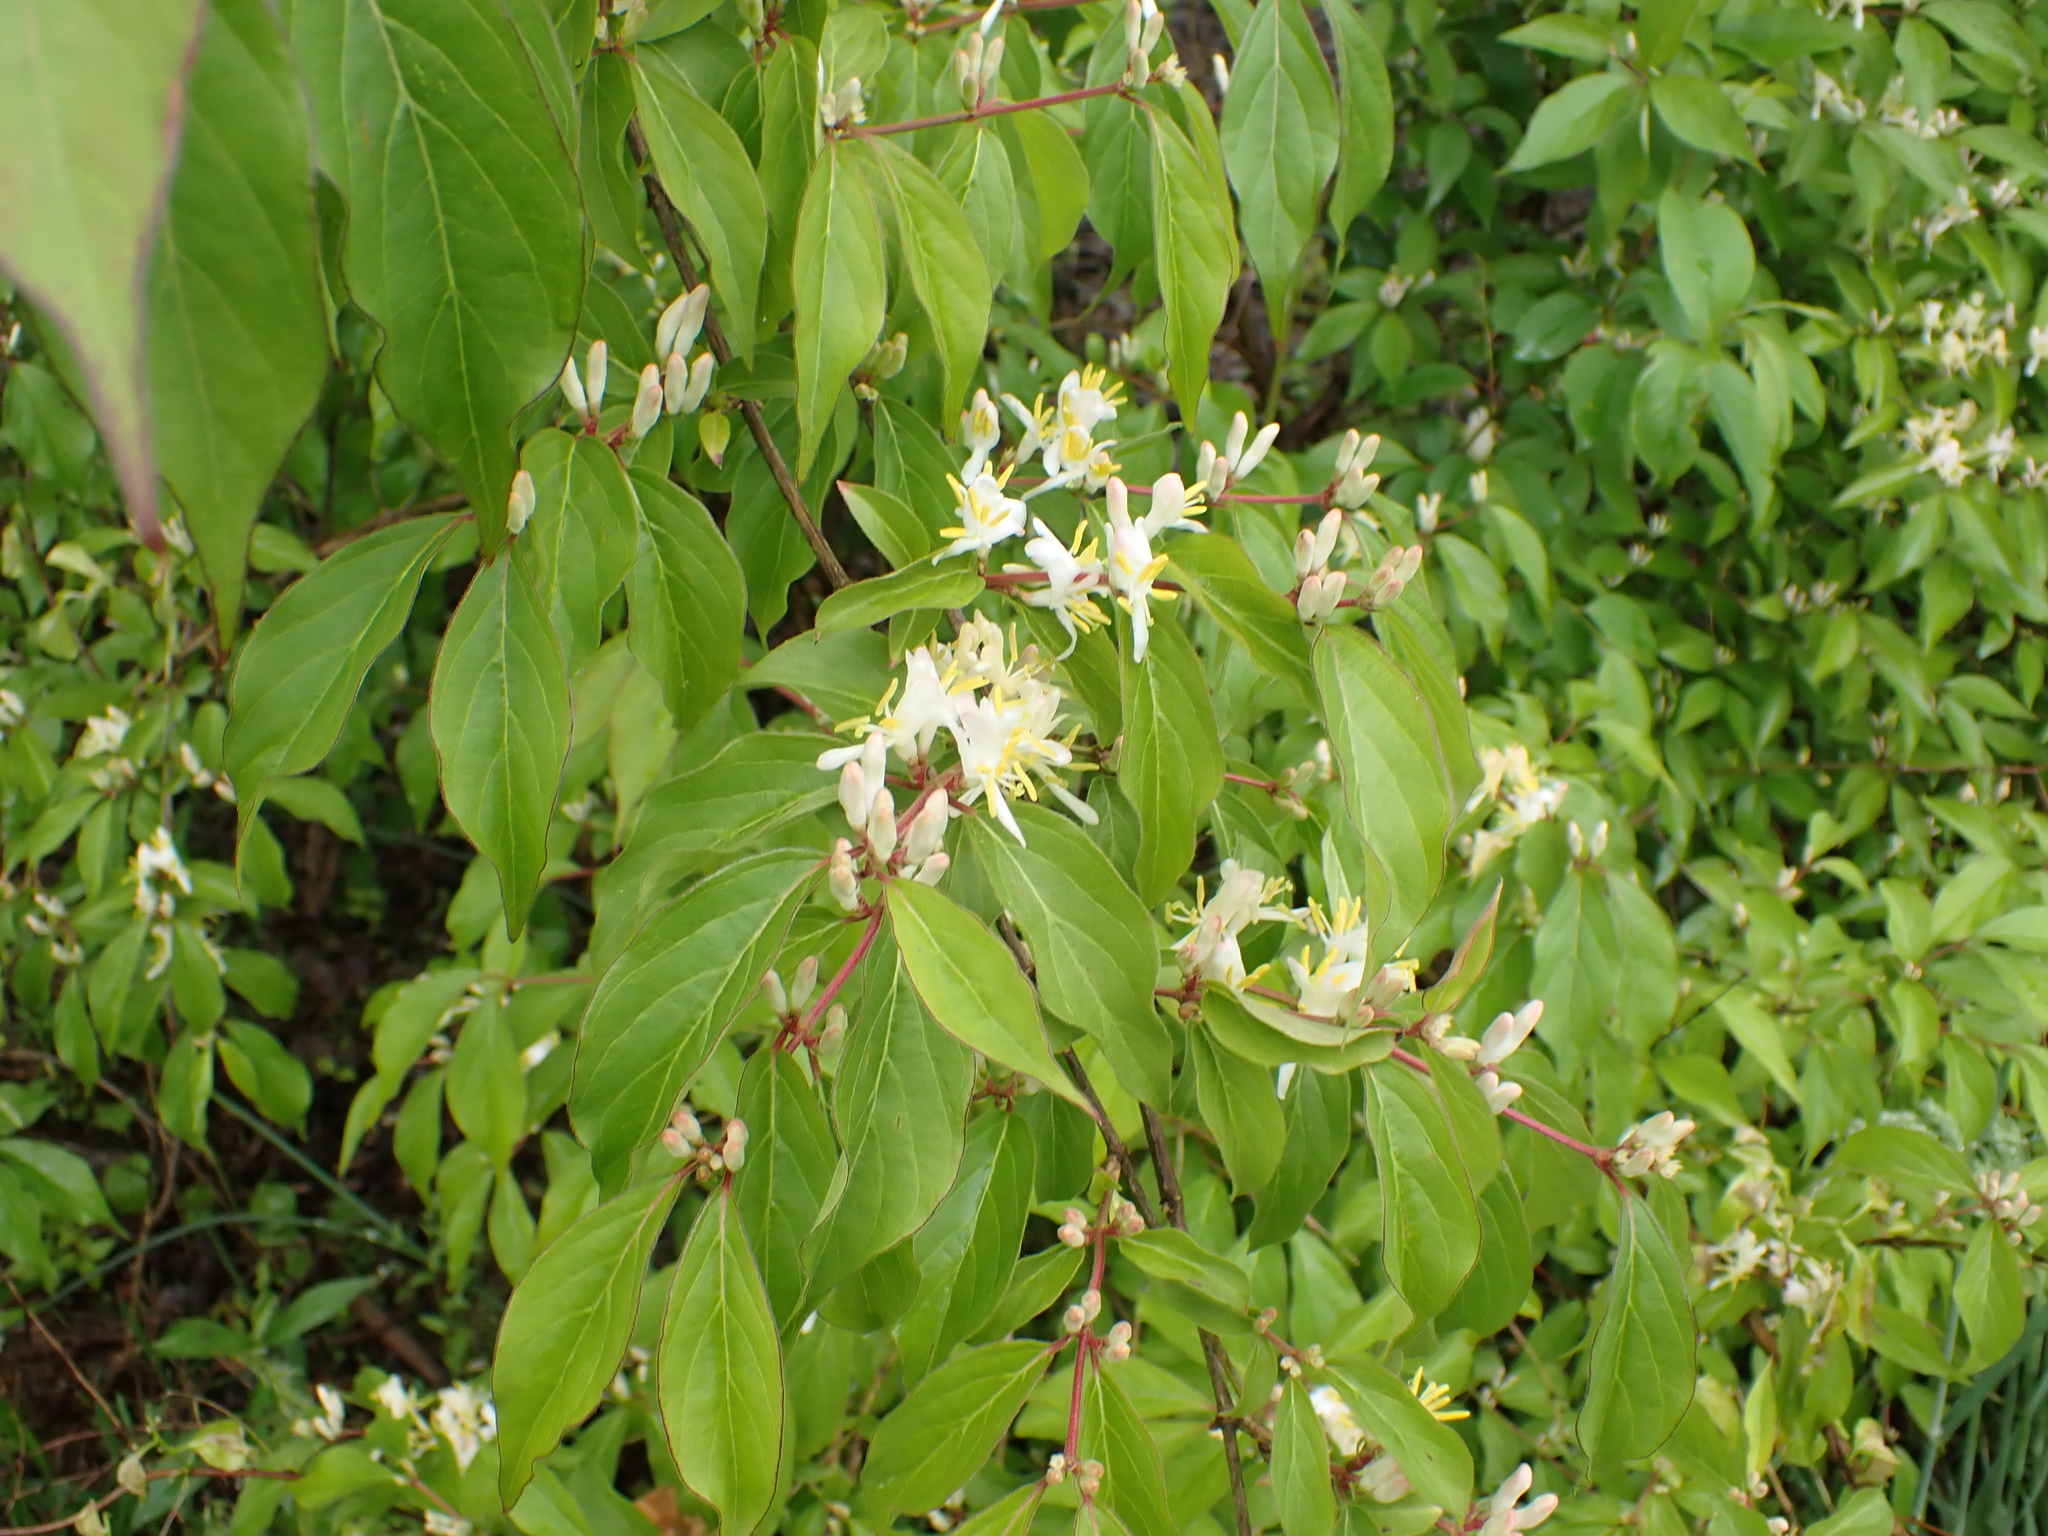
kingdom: Plantae
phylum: Tracheophyta
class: Magnoliopsida
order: Dipsacales
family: Caprifoliaceae
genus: Lonicera
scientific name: Lonicera maackii
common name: Amur honeysuckle
